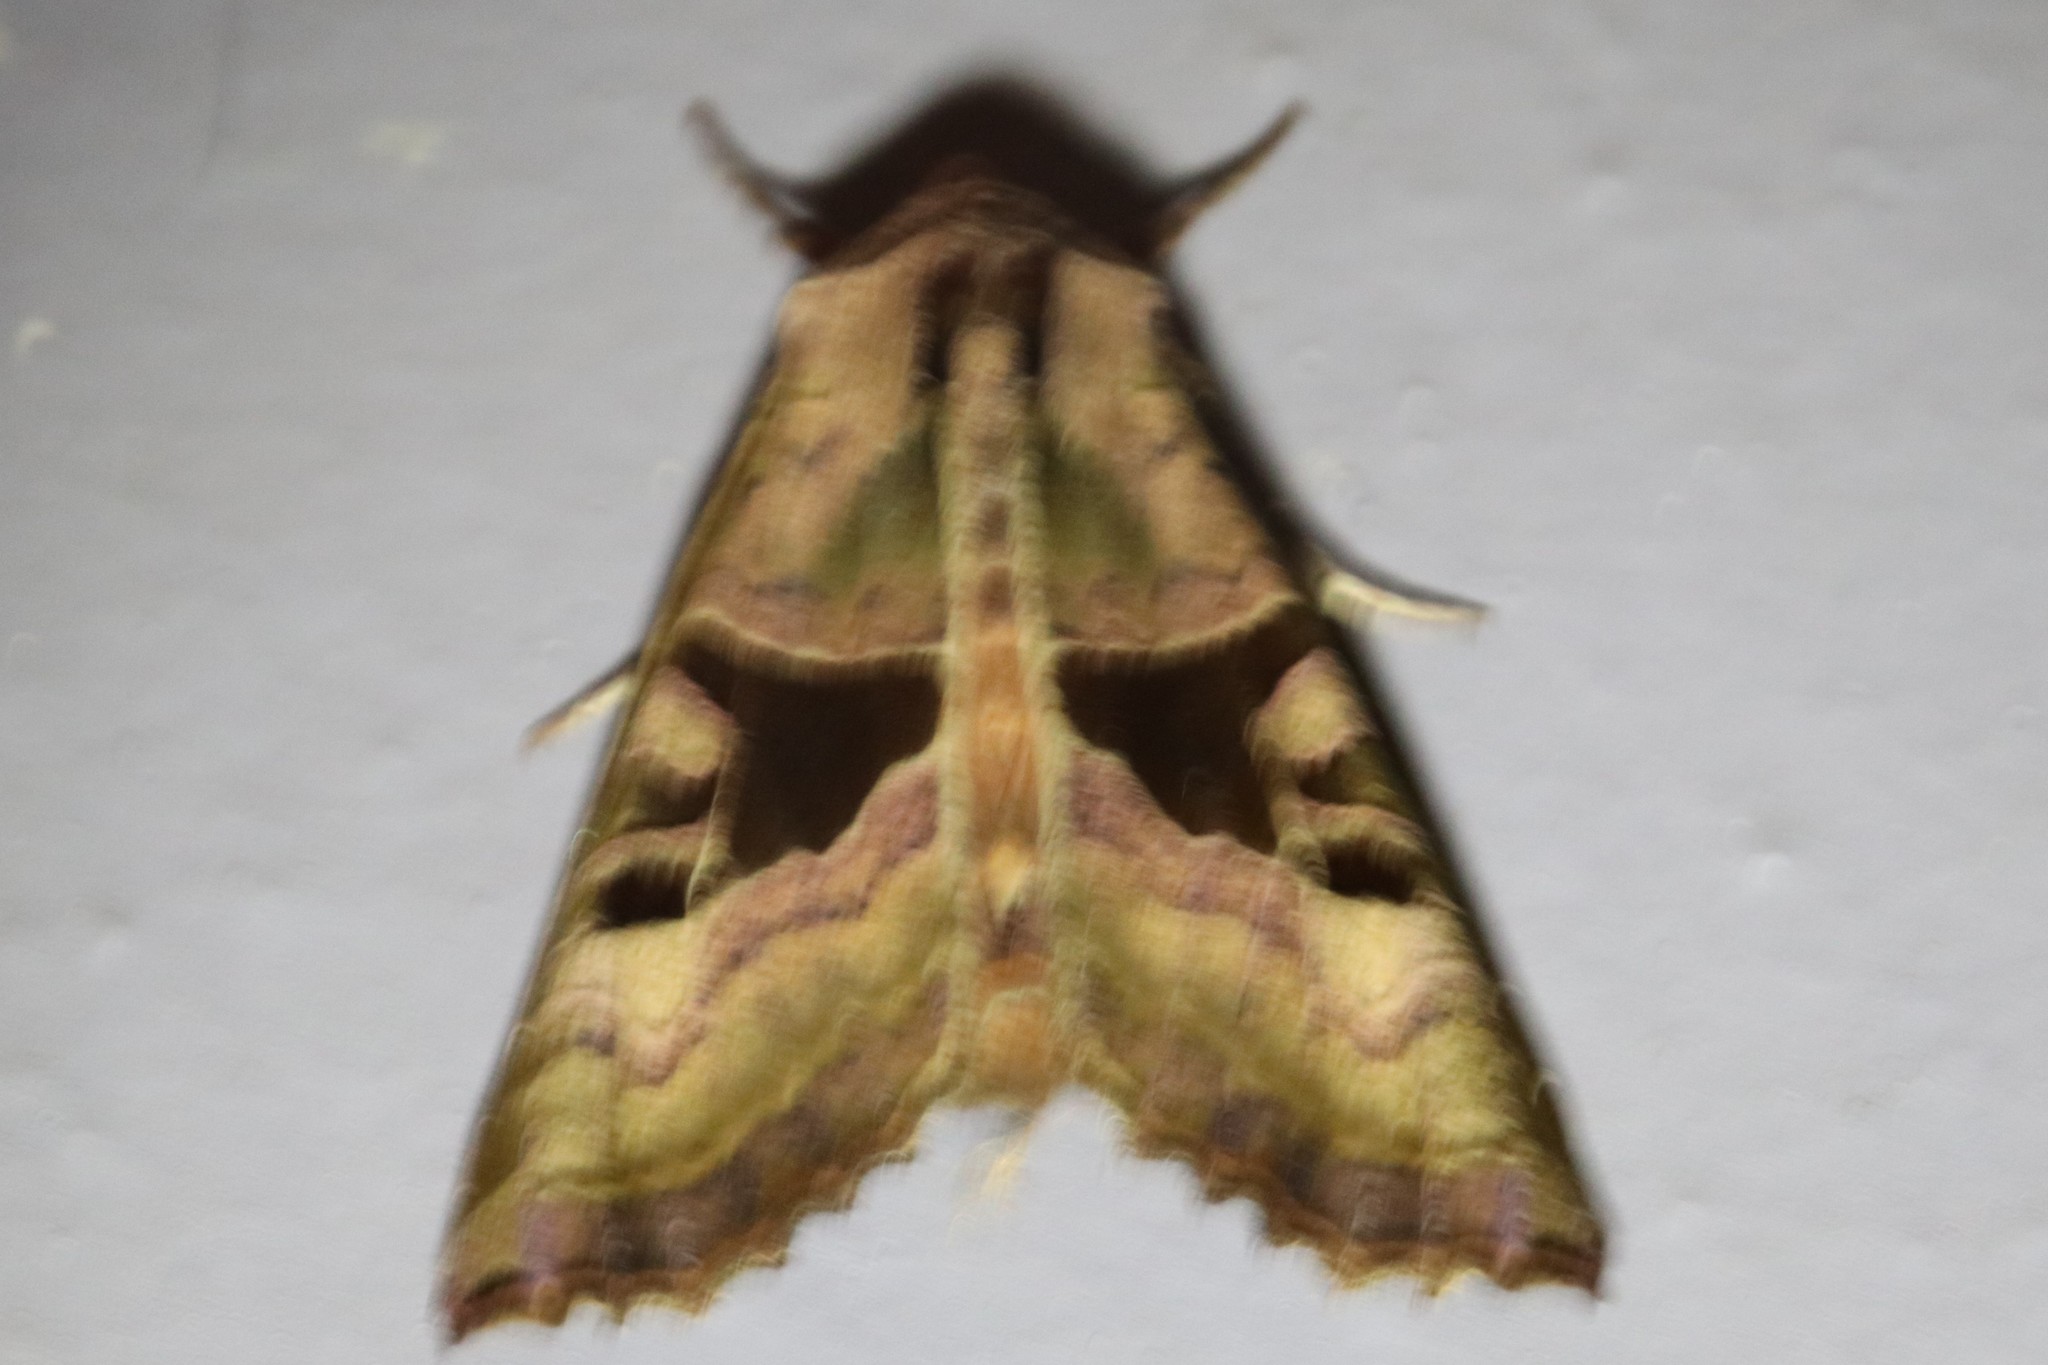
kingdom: Animalia
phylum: Arthropoda
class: Insecta
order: Lepidoptera
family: Noctuidae
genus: Phlogophora
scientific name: Phlogophora iris
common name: Olive angle shades
